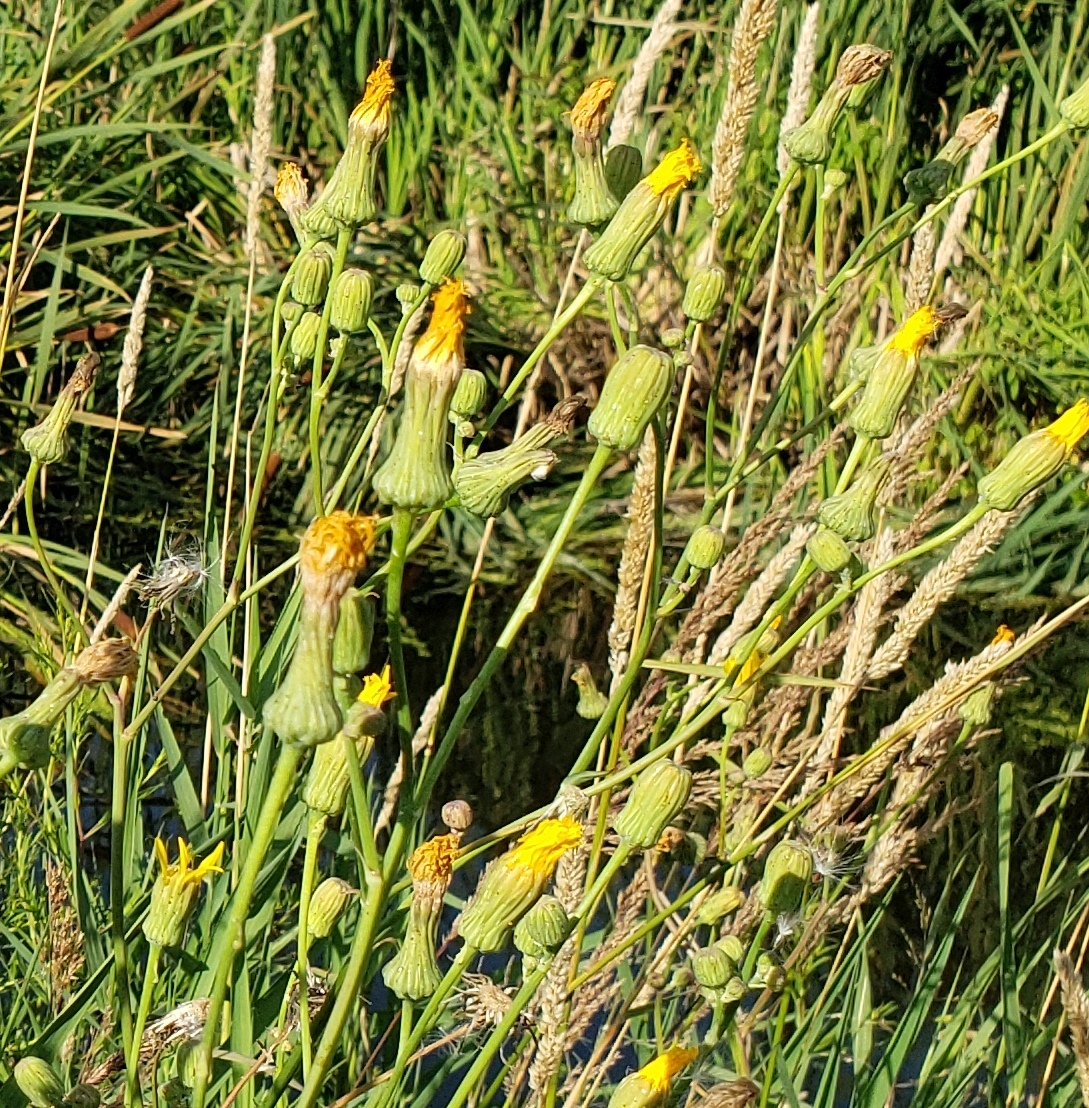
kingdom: Plantae
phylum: Tracheophyta
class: Magnoliopsida
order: Asterales
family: Asteraceae
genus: Sonchus
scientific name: Sonchus arvensis
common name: Perennial sow-thistle
